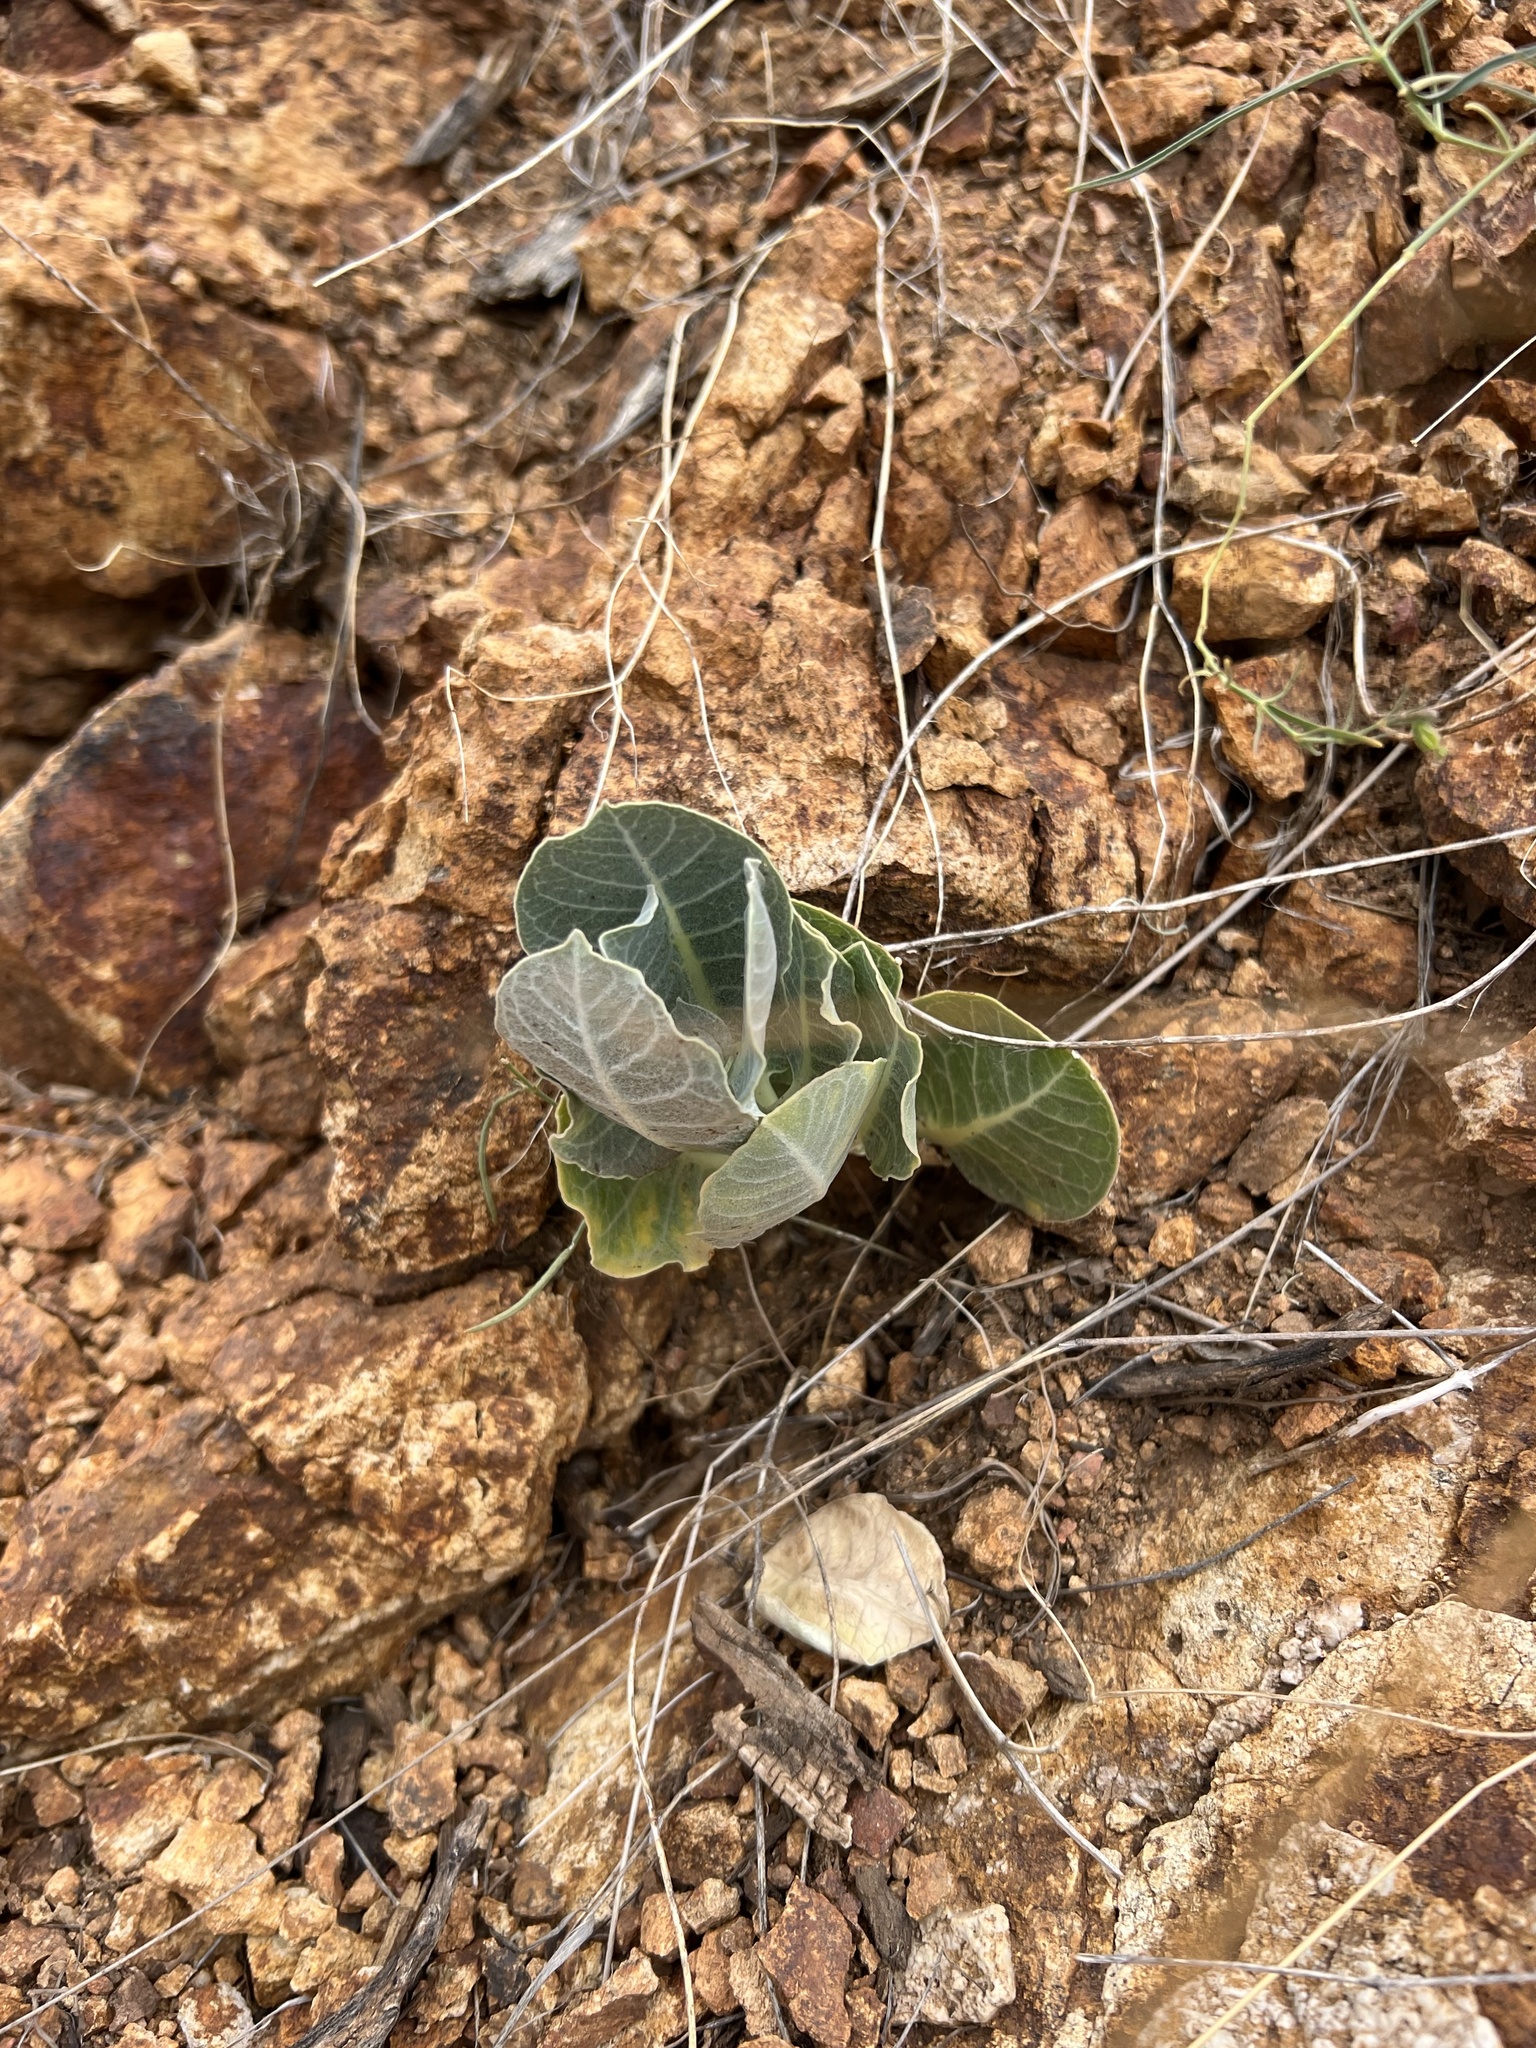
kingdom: Plantae
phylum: Tracheophyta
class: Magnoliopsida
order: Gentianales
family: Apocynaceae
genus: Asclepias
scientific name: Asclepias nummularia
